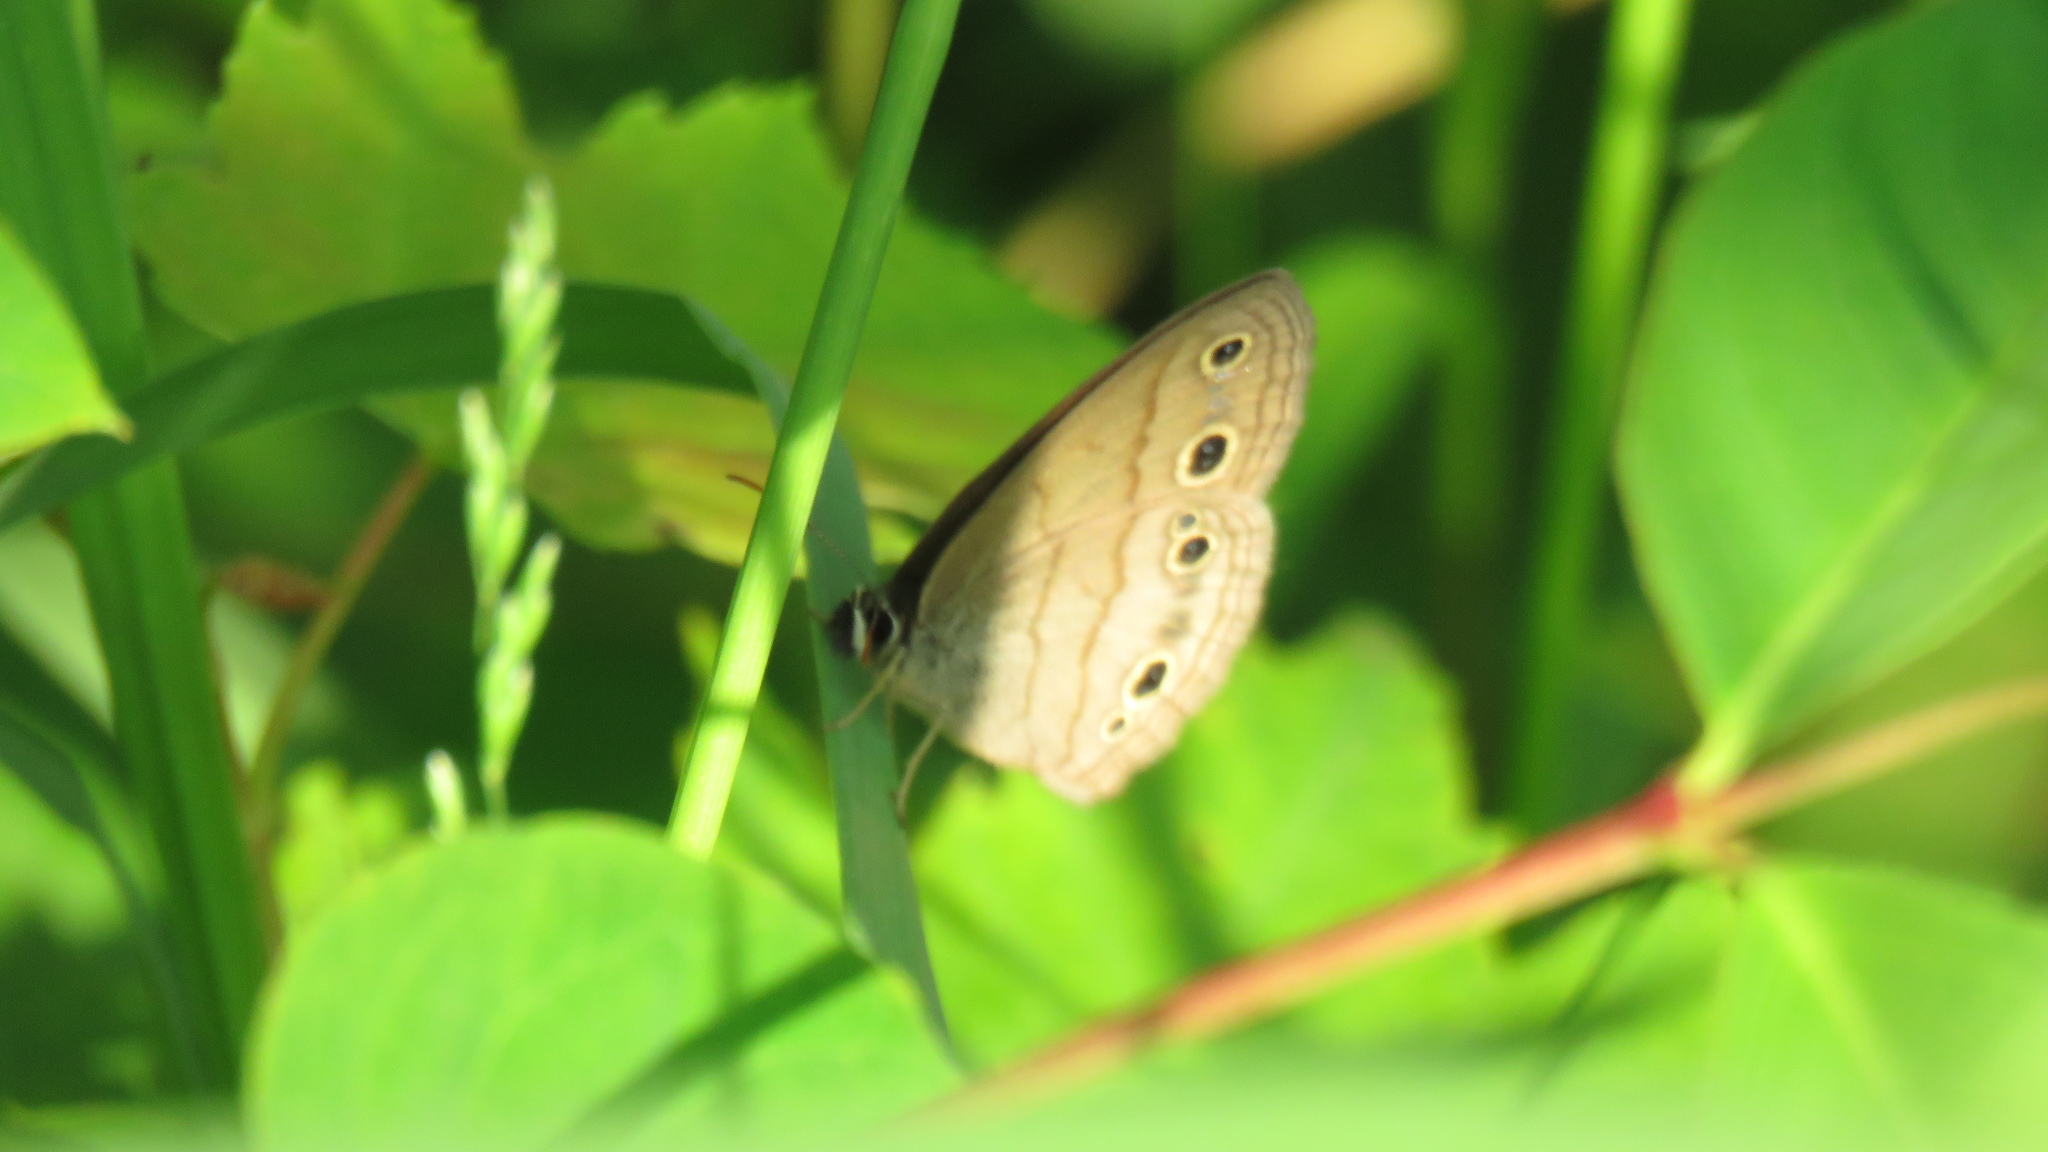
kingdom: Animalia
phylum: Arthropoda
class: Insecta
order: Lepidoptera
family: Nymphalidae
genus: Euptychia
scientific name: Euptychia cymela
